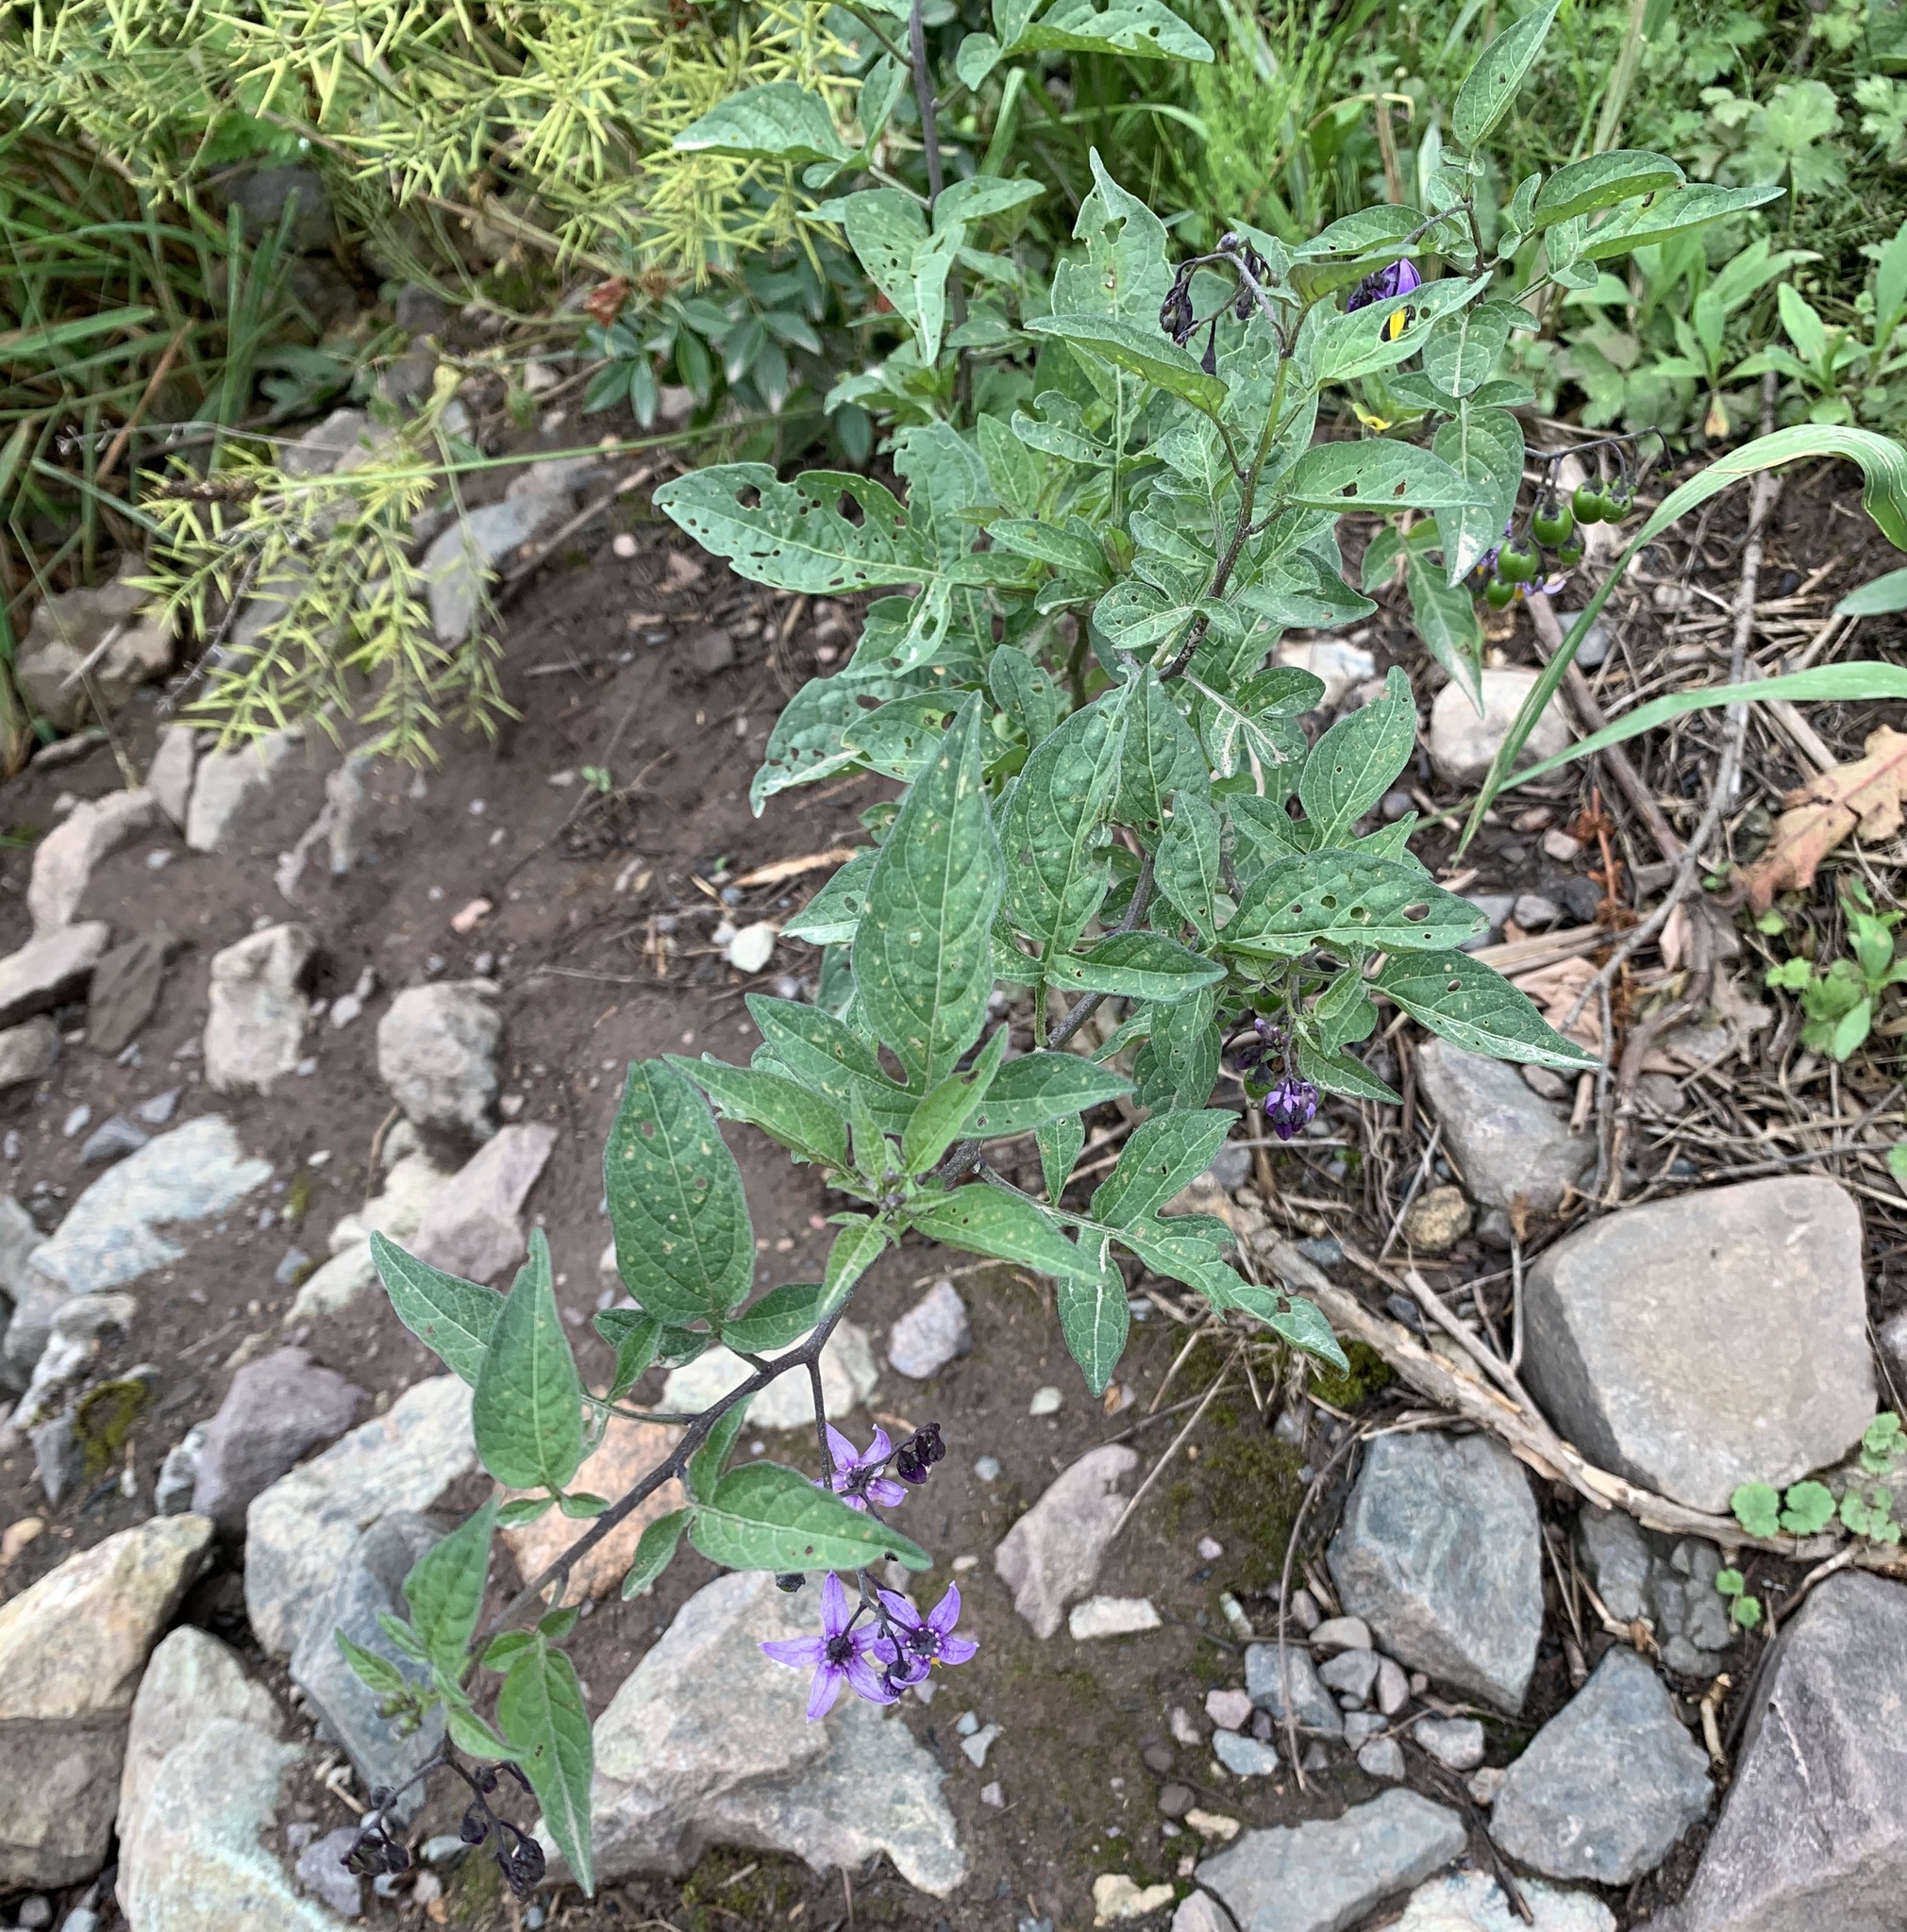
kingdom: Plantae
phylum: Tracheophyta
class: Magnoliopsida
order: Solanales
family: Solanaceae
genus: Solanum
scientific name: Solanum dulcamara
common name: Climbing nightshade
